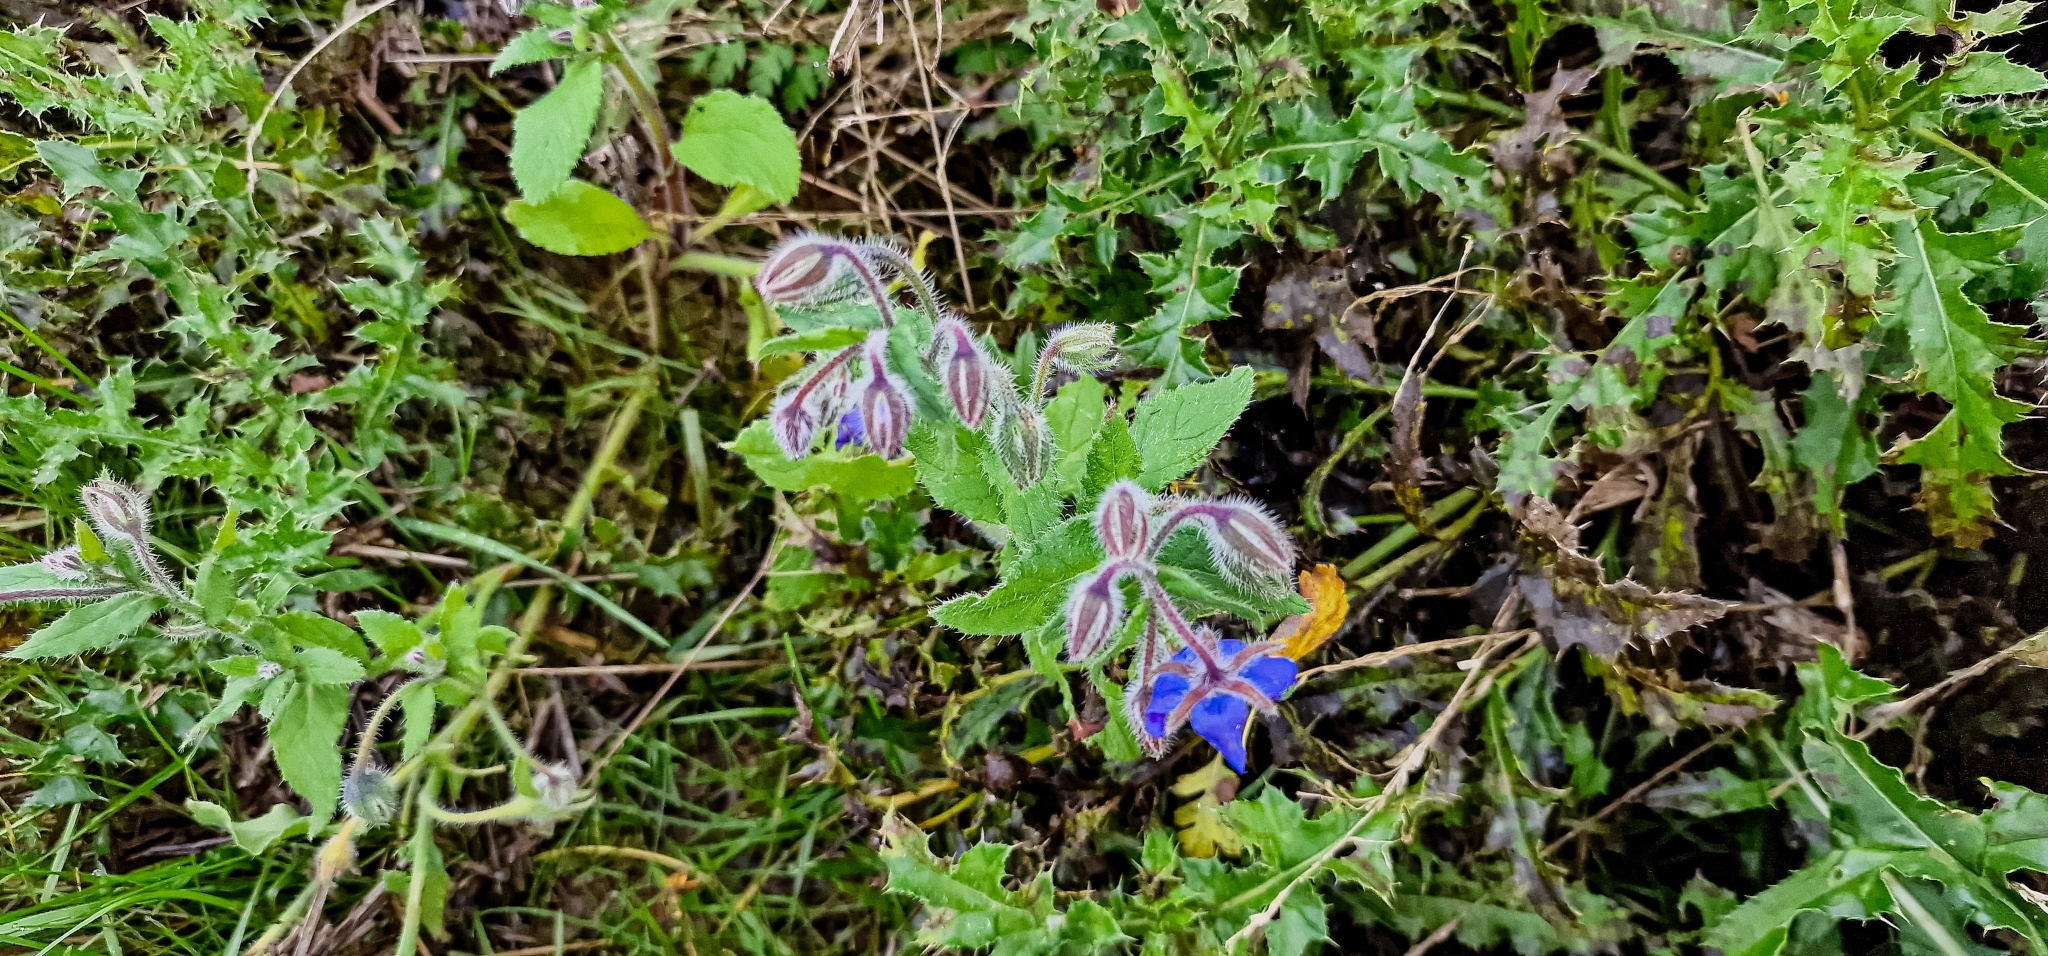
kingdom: Plantae
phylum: Tracheophyta
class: Magnoliopsida
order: Boraginales
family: Boraginaceae
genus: Borago
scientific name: Borago officinalis
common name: Borage
